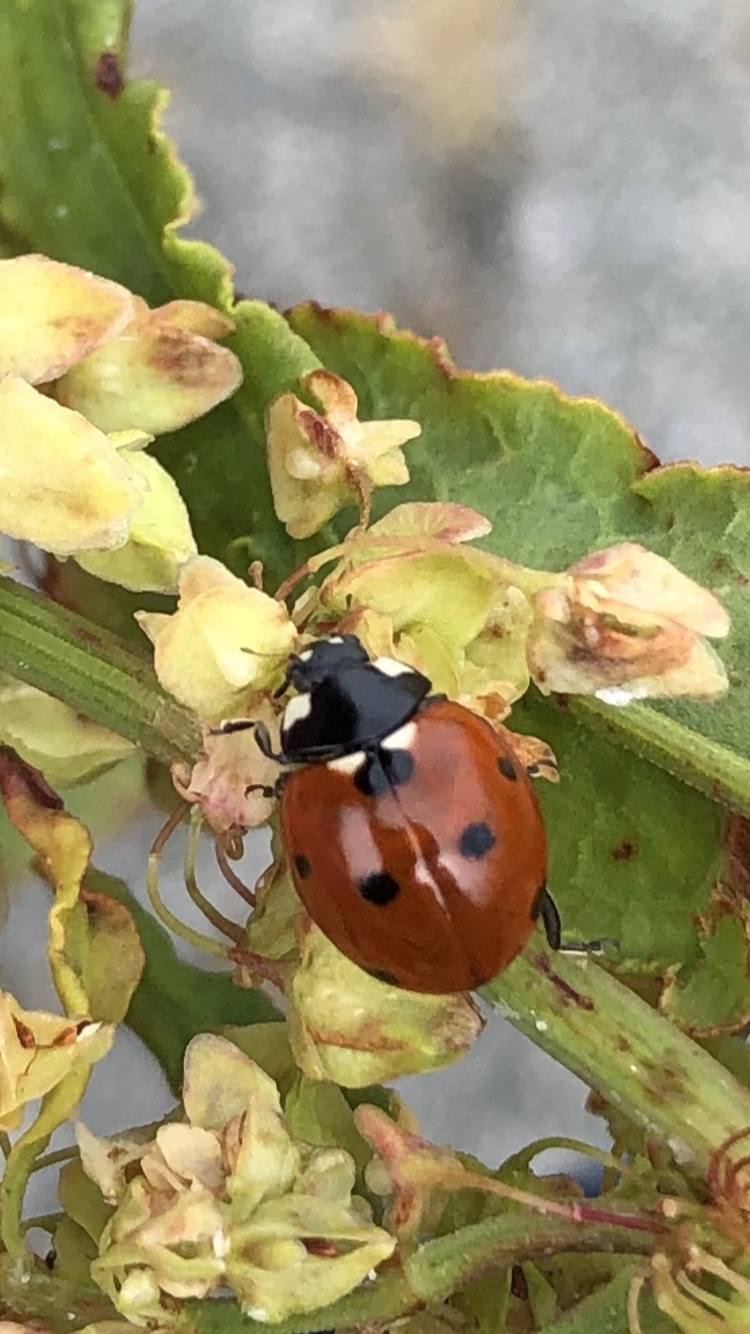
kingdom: Animalia
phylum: Arthropoda
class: Insecta
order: Coleoptera
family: Coccinellidae
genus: Coccinella
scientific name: Coccinella septempunctata
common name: Sevenspotted lady beetle
